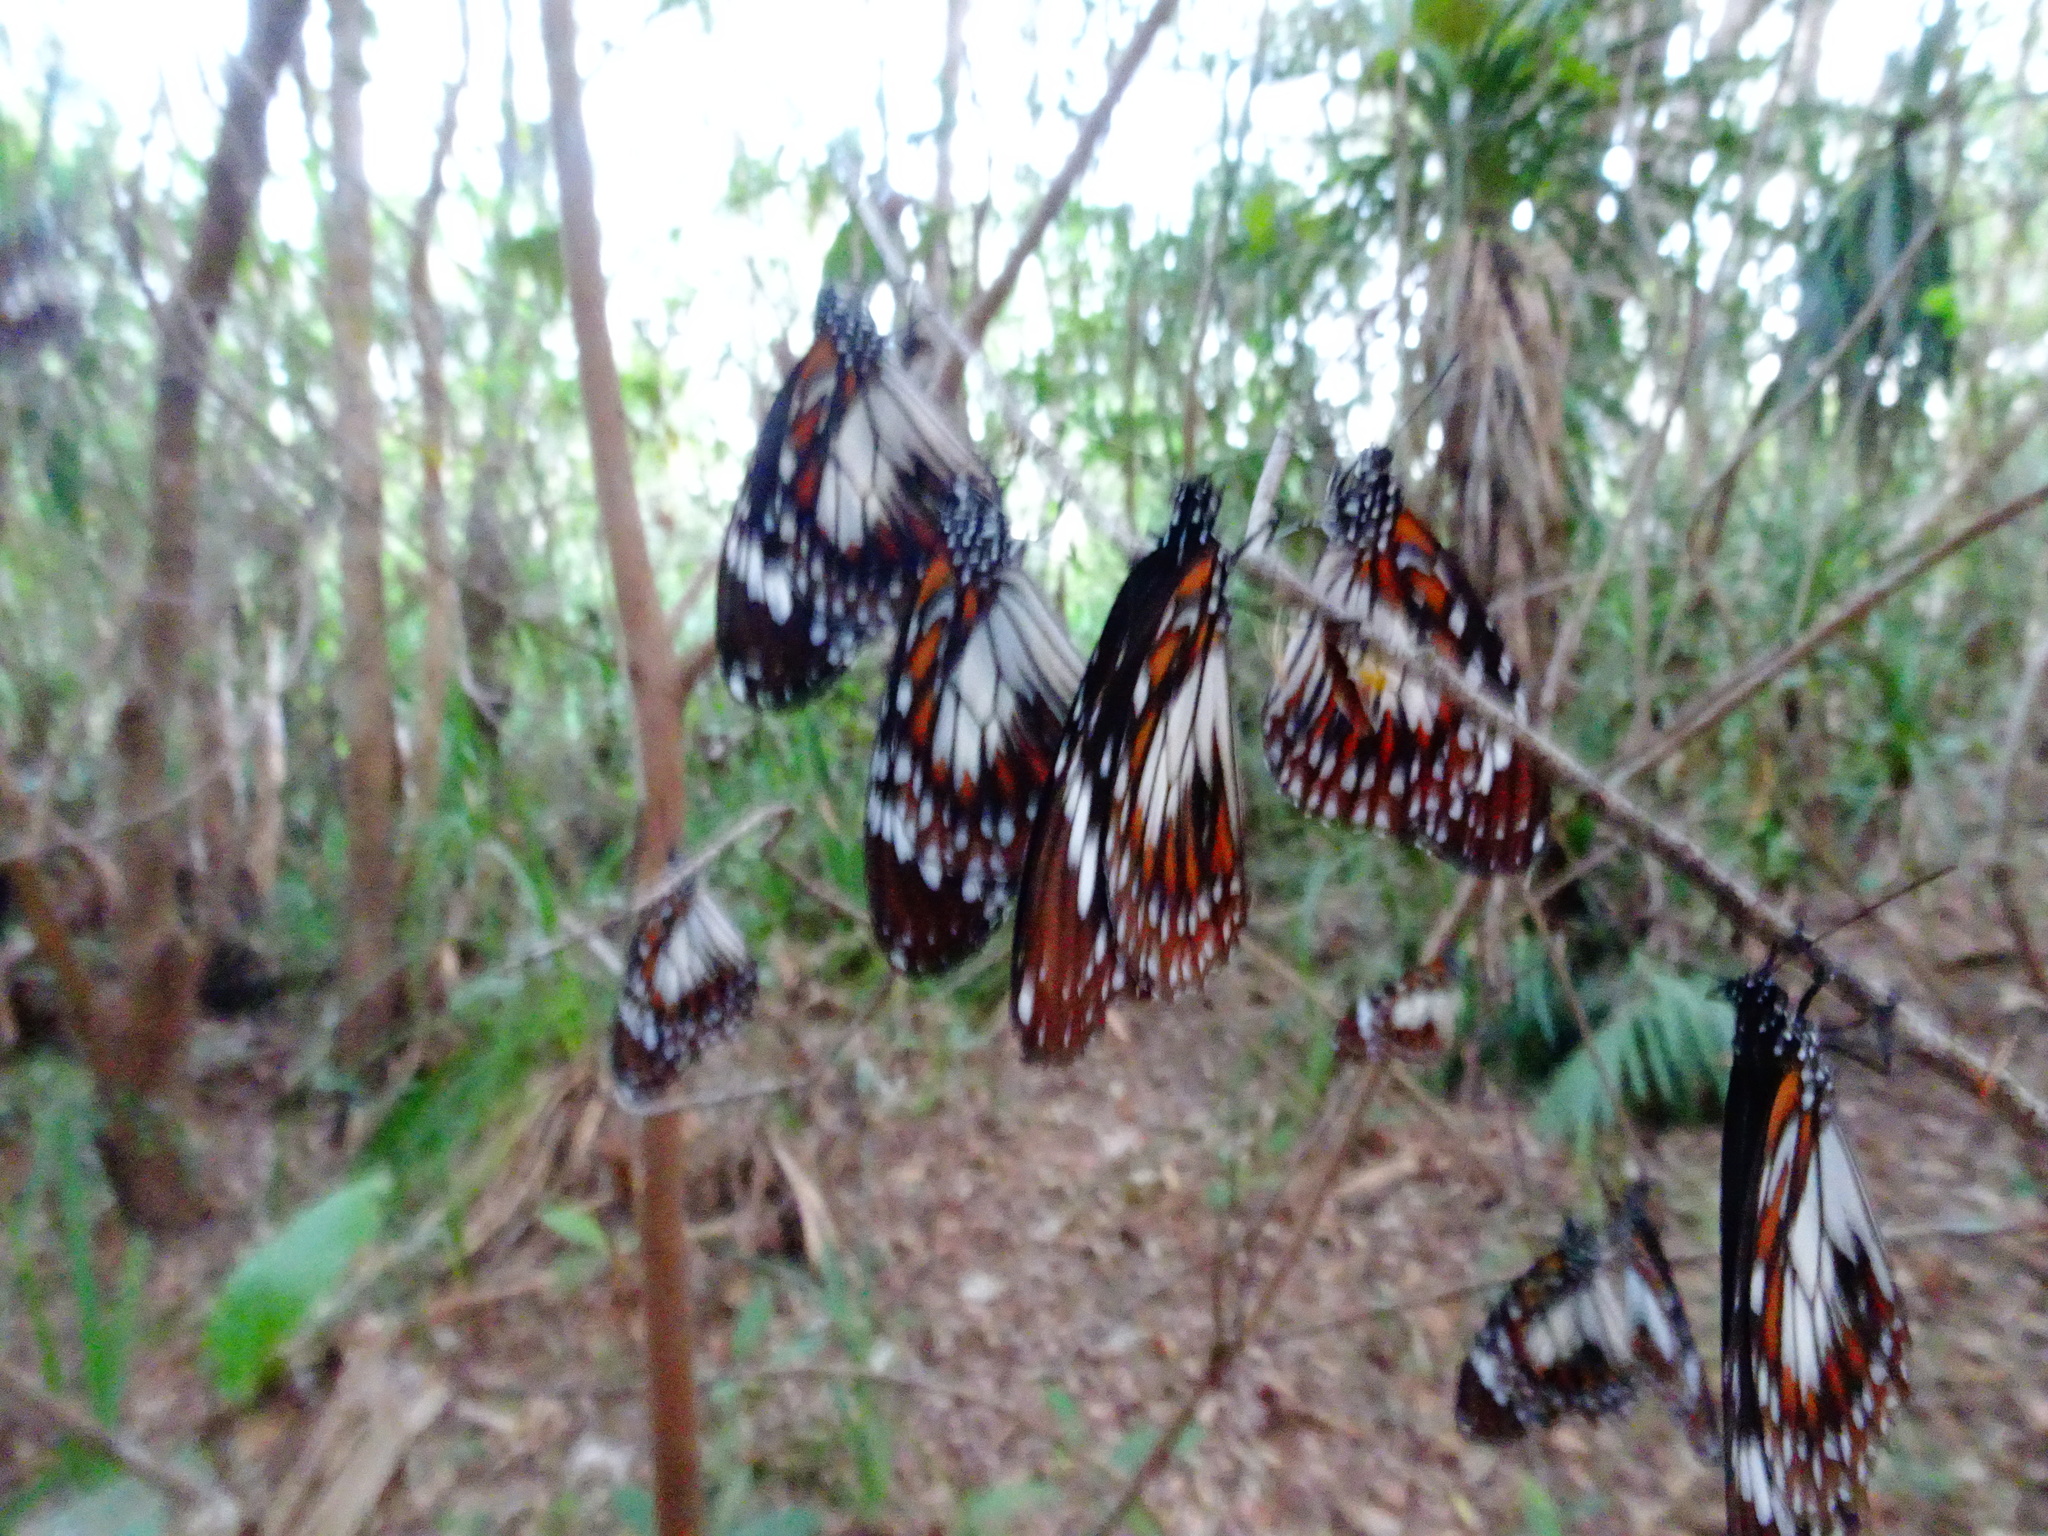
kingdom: Animalia
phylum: Arthropoda
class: Insecta
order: Lepidoptera
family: Nymphalidae
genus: Danaus
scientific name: Danaus affinis
